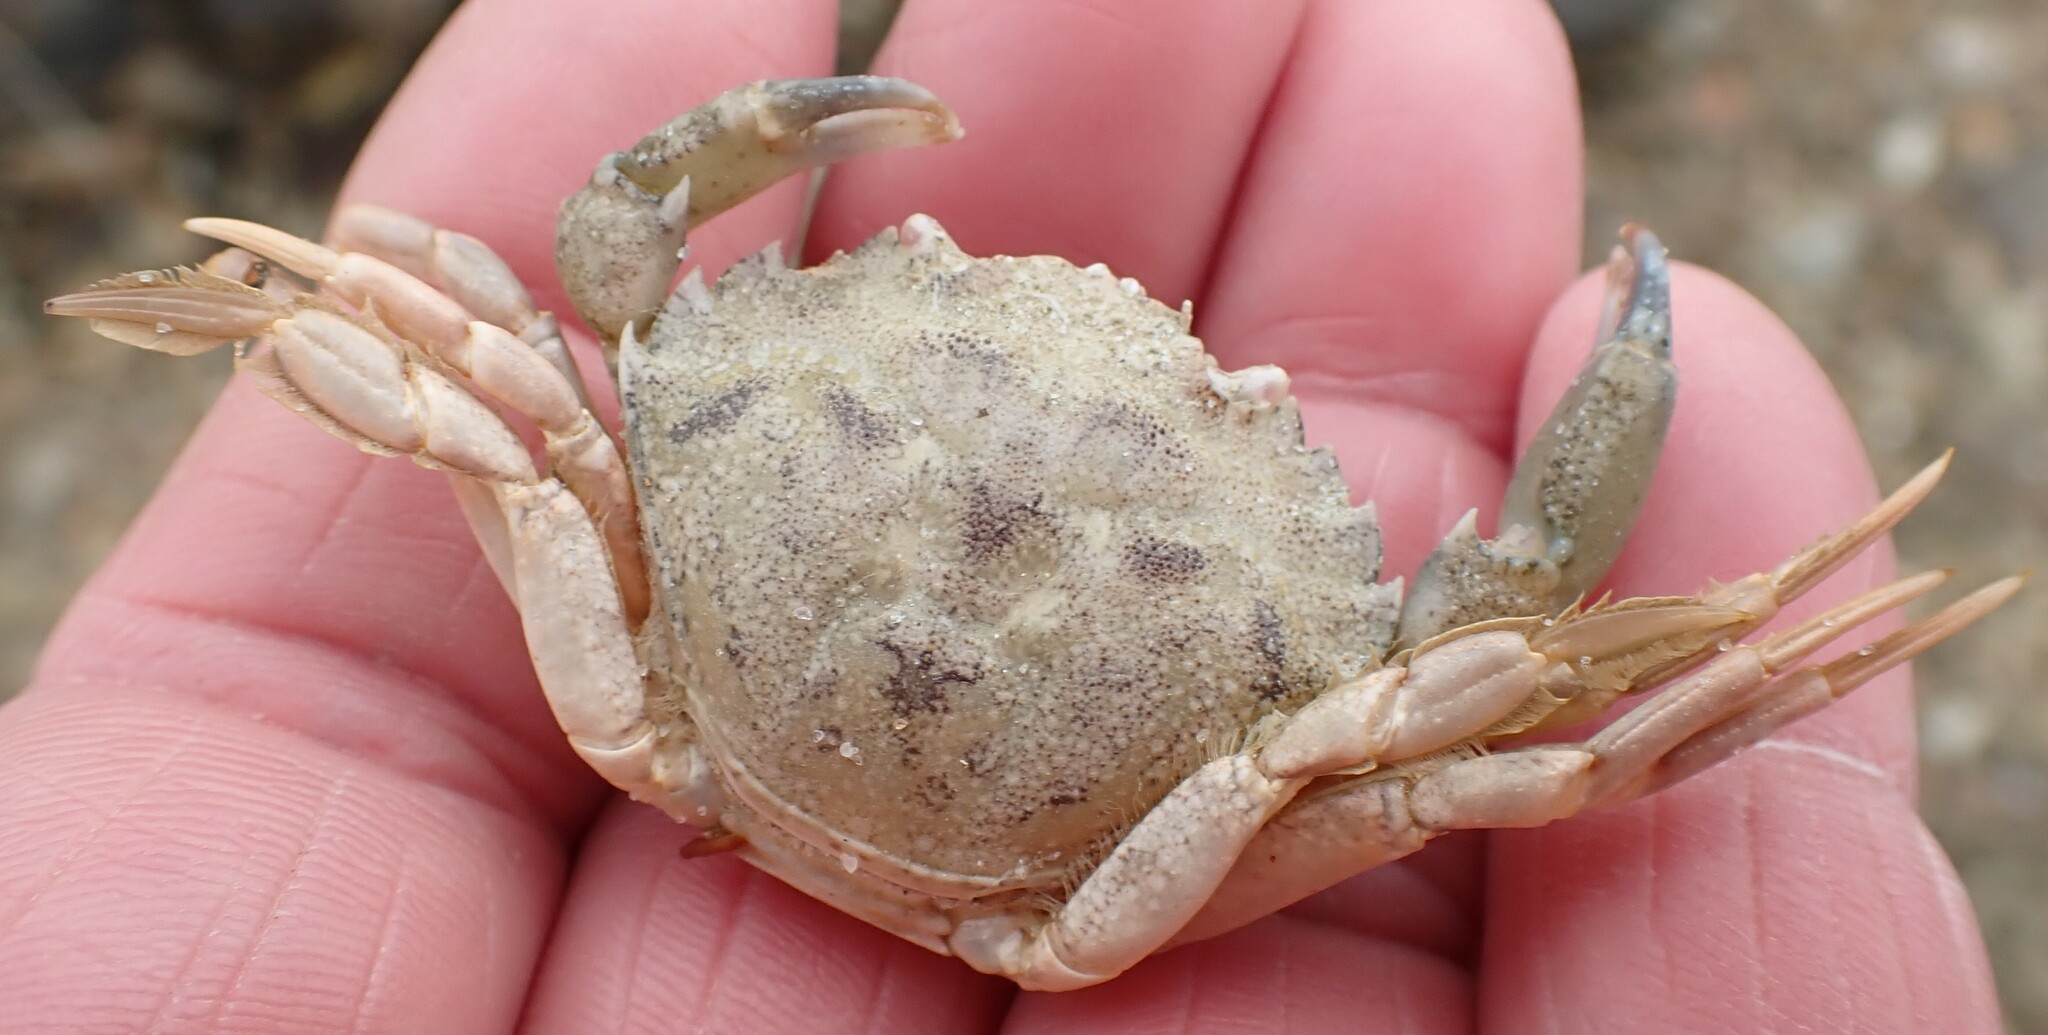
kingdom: Animalia
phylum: Arthropoda
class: Malacostraca
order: Decapoda
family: Carcinidae
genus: Carcinus
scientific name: Carcinus maenas
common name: European green crab
